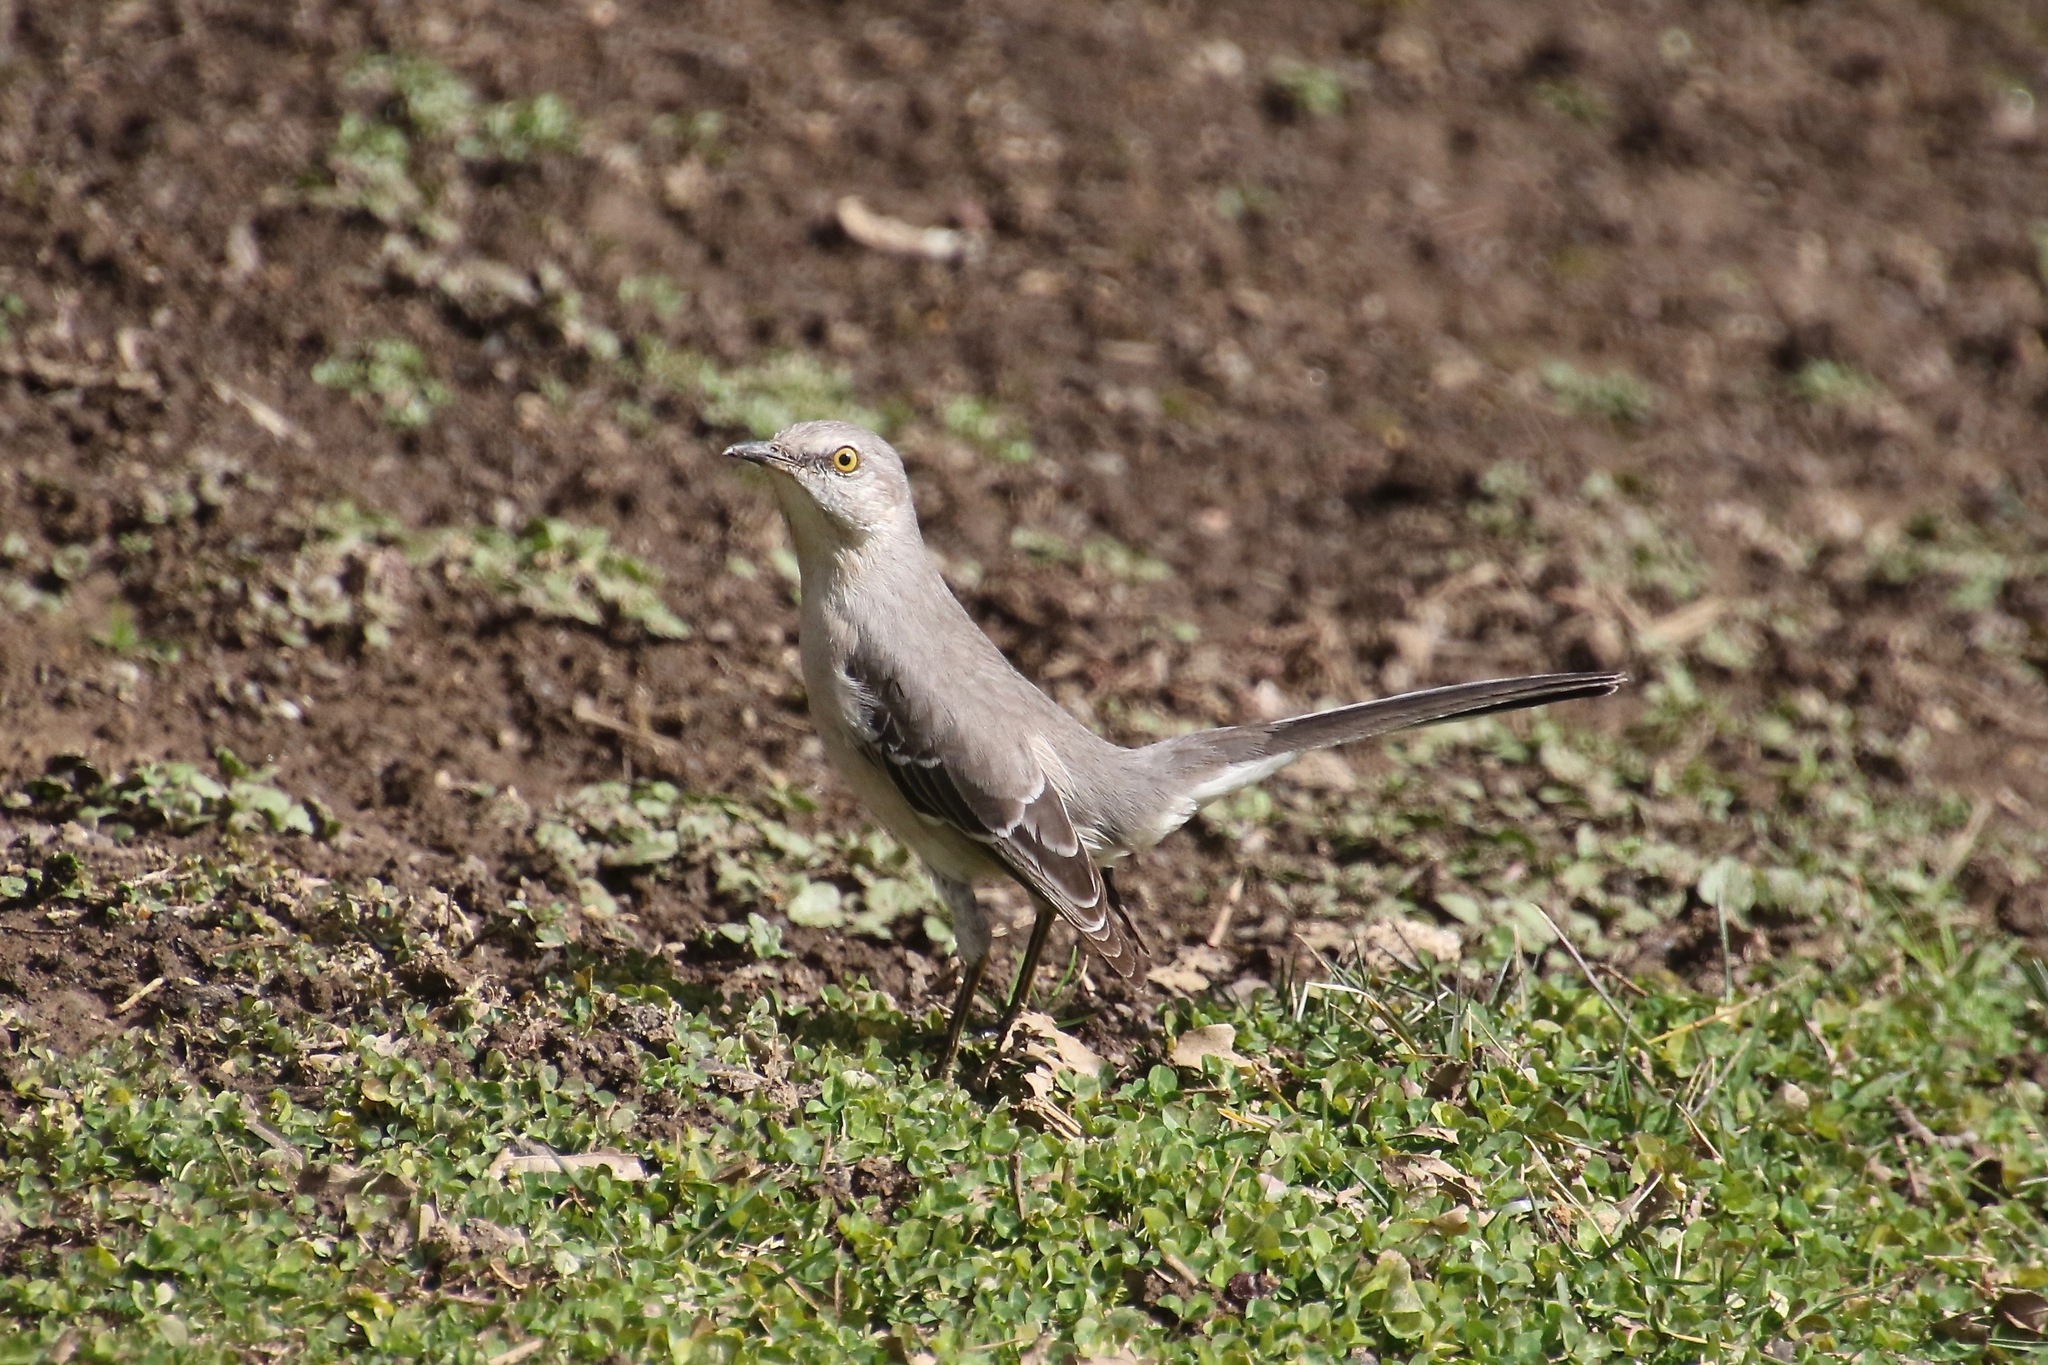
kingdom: Animalia
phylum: Chordata
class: Aves
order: Passeriformes
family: Mimidae
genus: Mimus
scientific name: Mimus polyglottos
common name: Northern mockingbird
